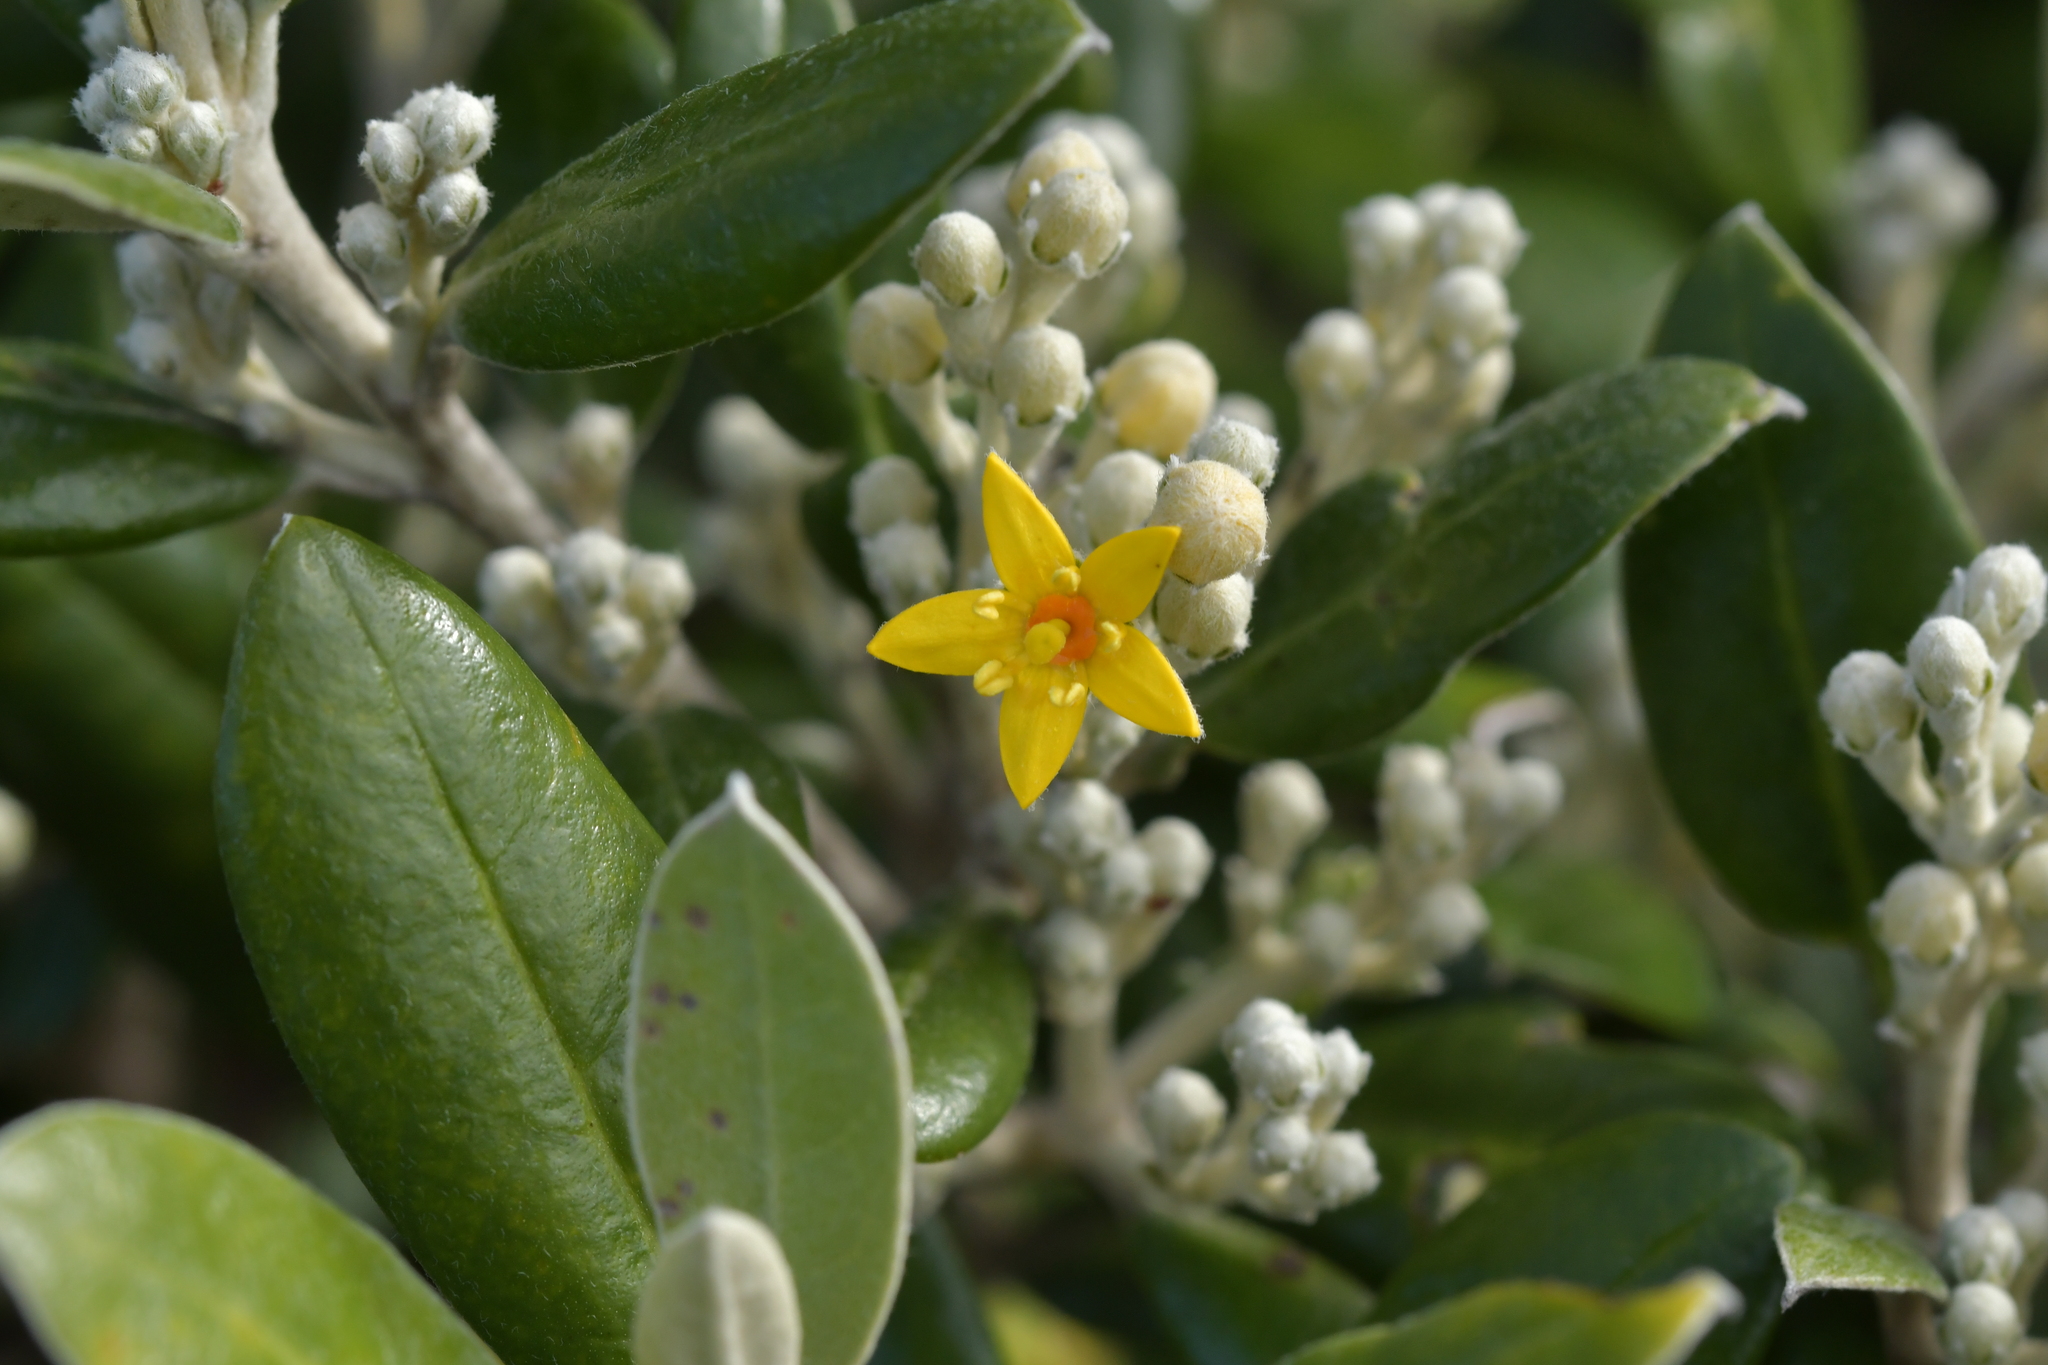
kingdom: Plantae
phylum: Tracheophyta
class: Magnoliopsida
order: Asterales
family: Argophyllaceae
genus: Corokia
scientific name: Corokia macrocarpa
